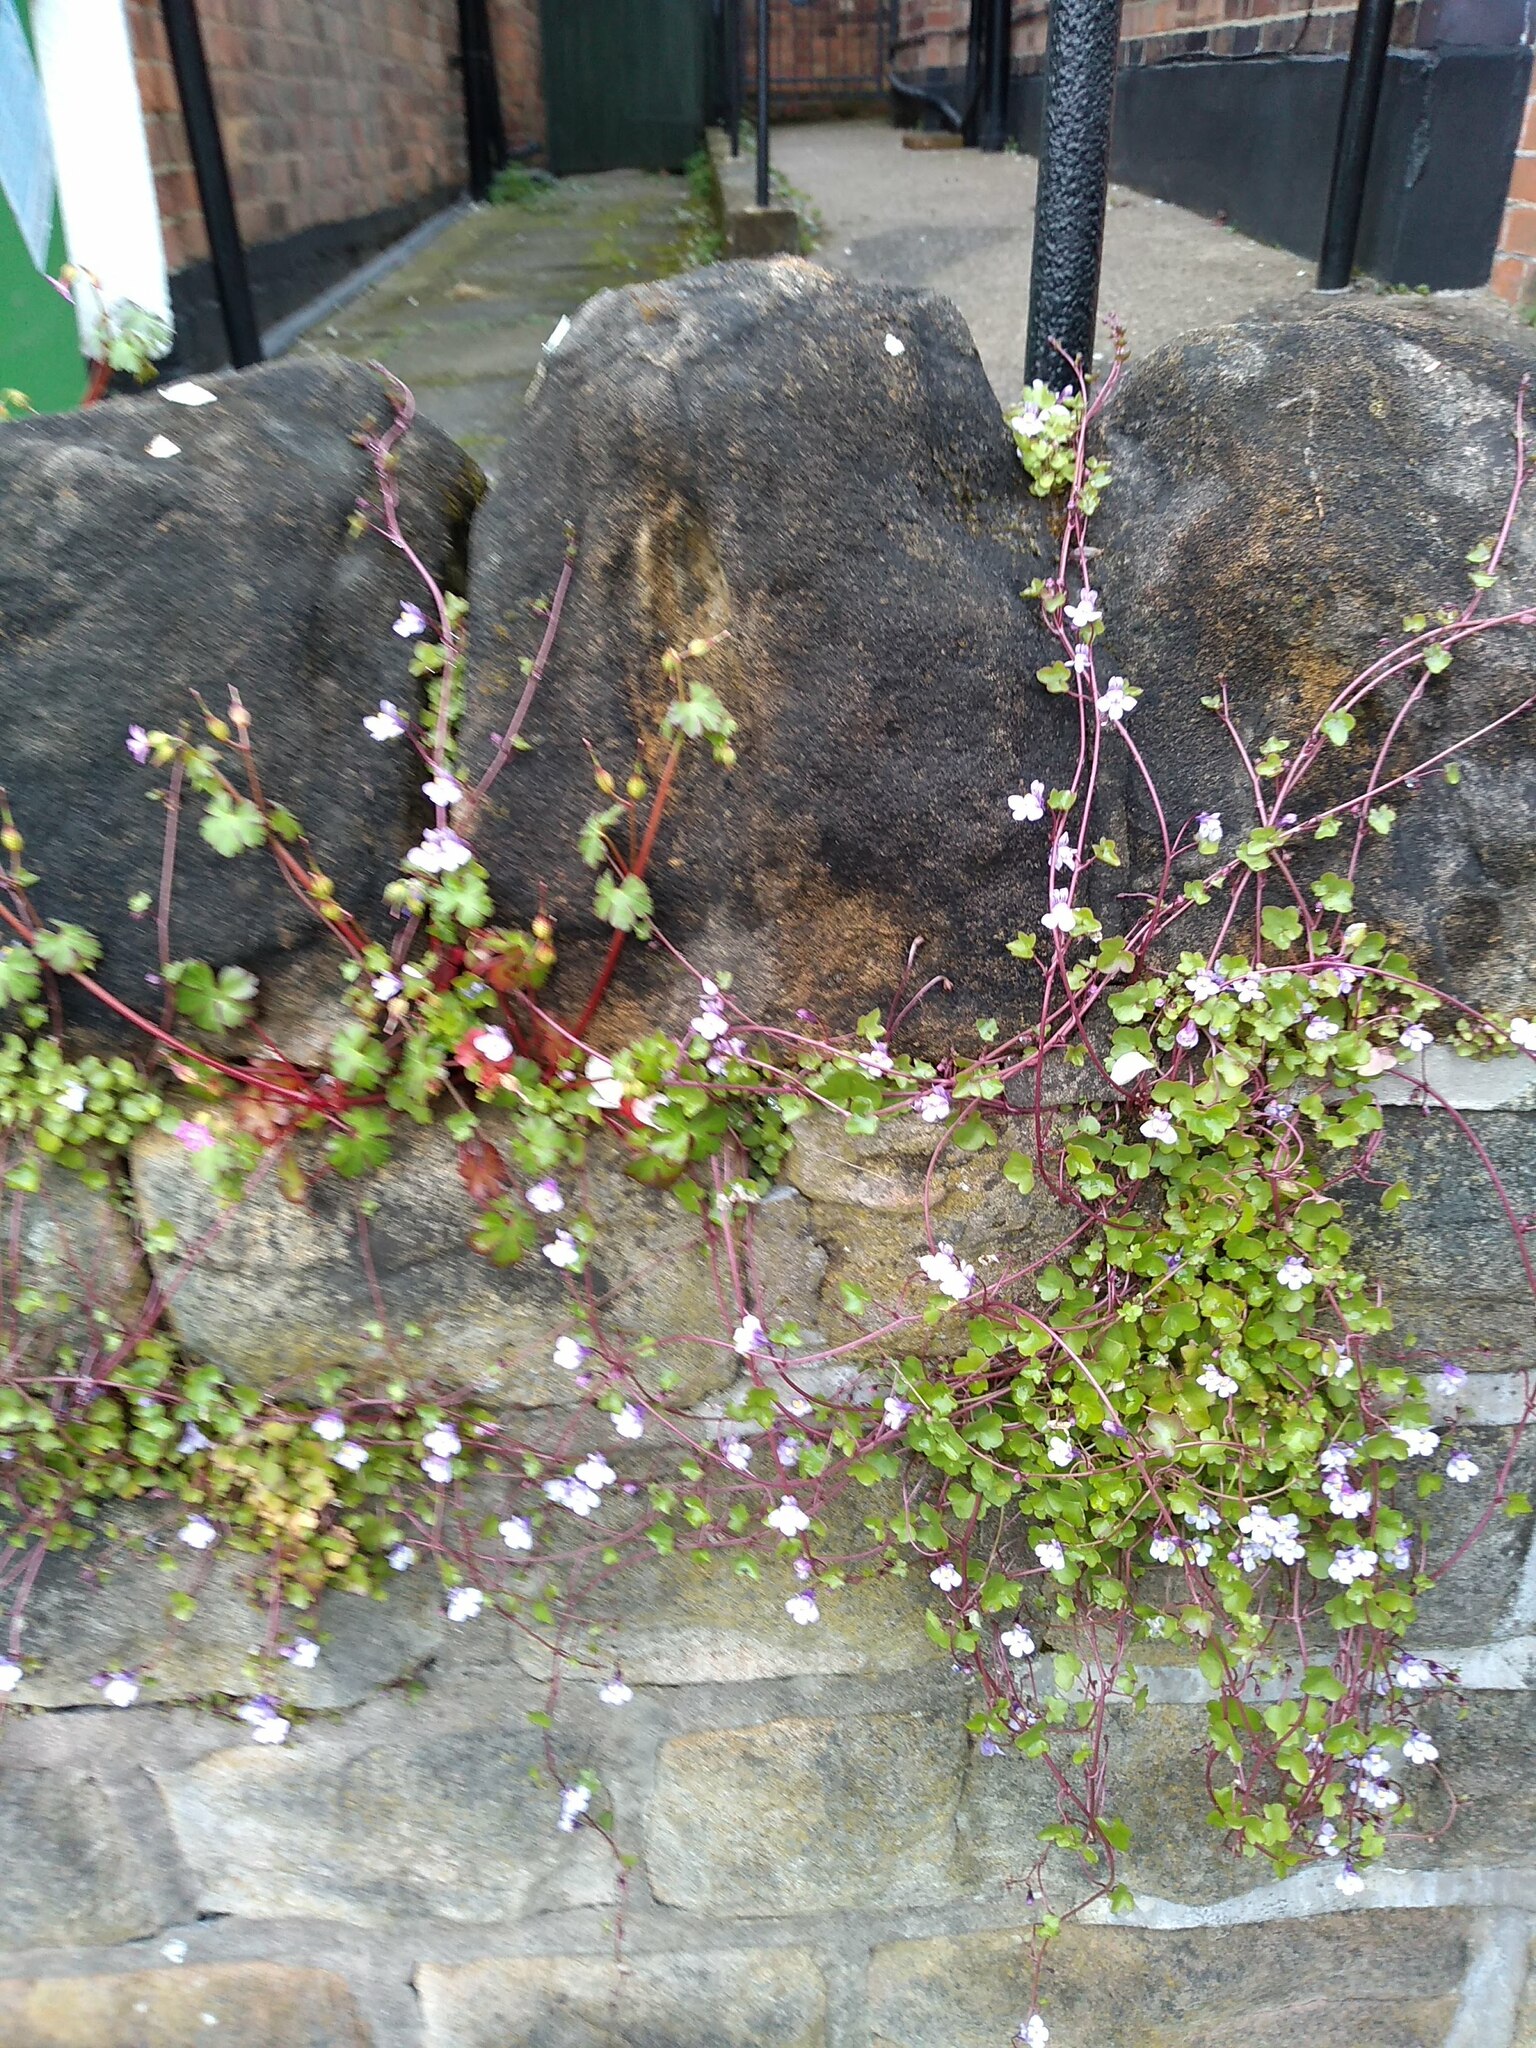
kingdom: Plantae
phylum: Tracheophyta
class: Magnoliopsida
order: Lamiales
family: Plantaginaceae
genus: Cymbalaria
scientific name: Cymbalaria muralis
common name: Ivy-leaved toadflax
